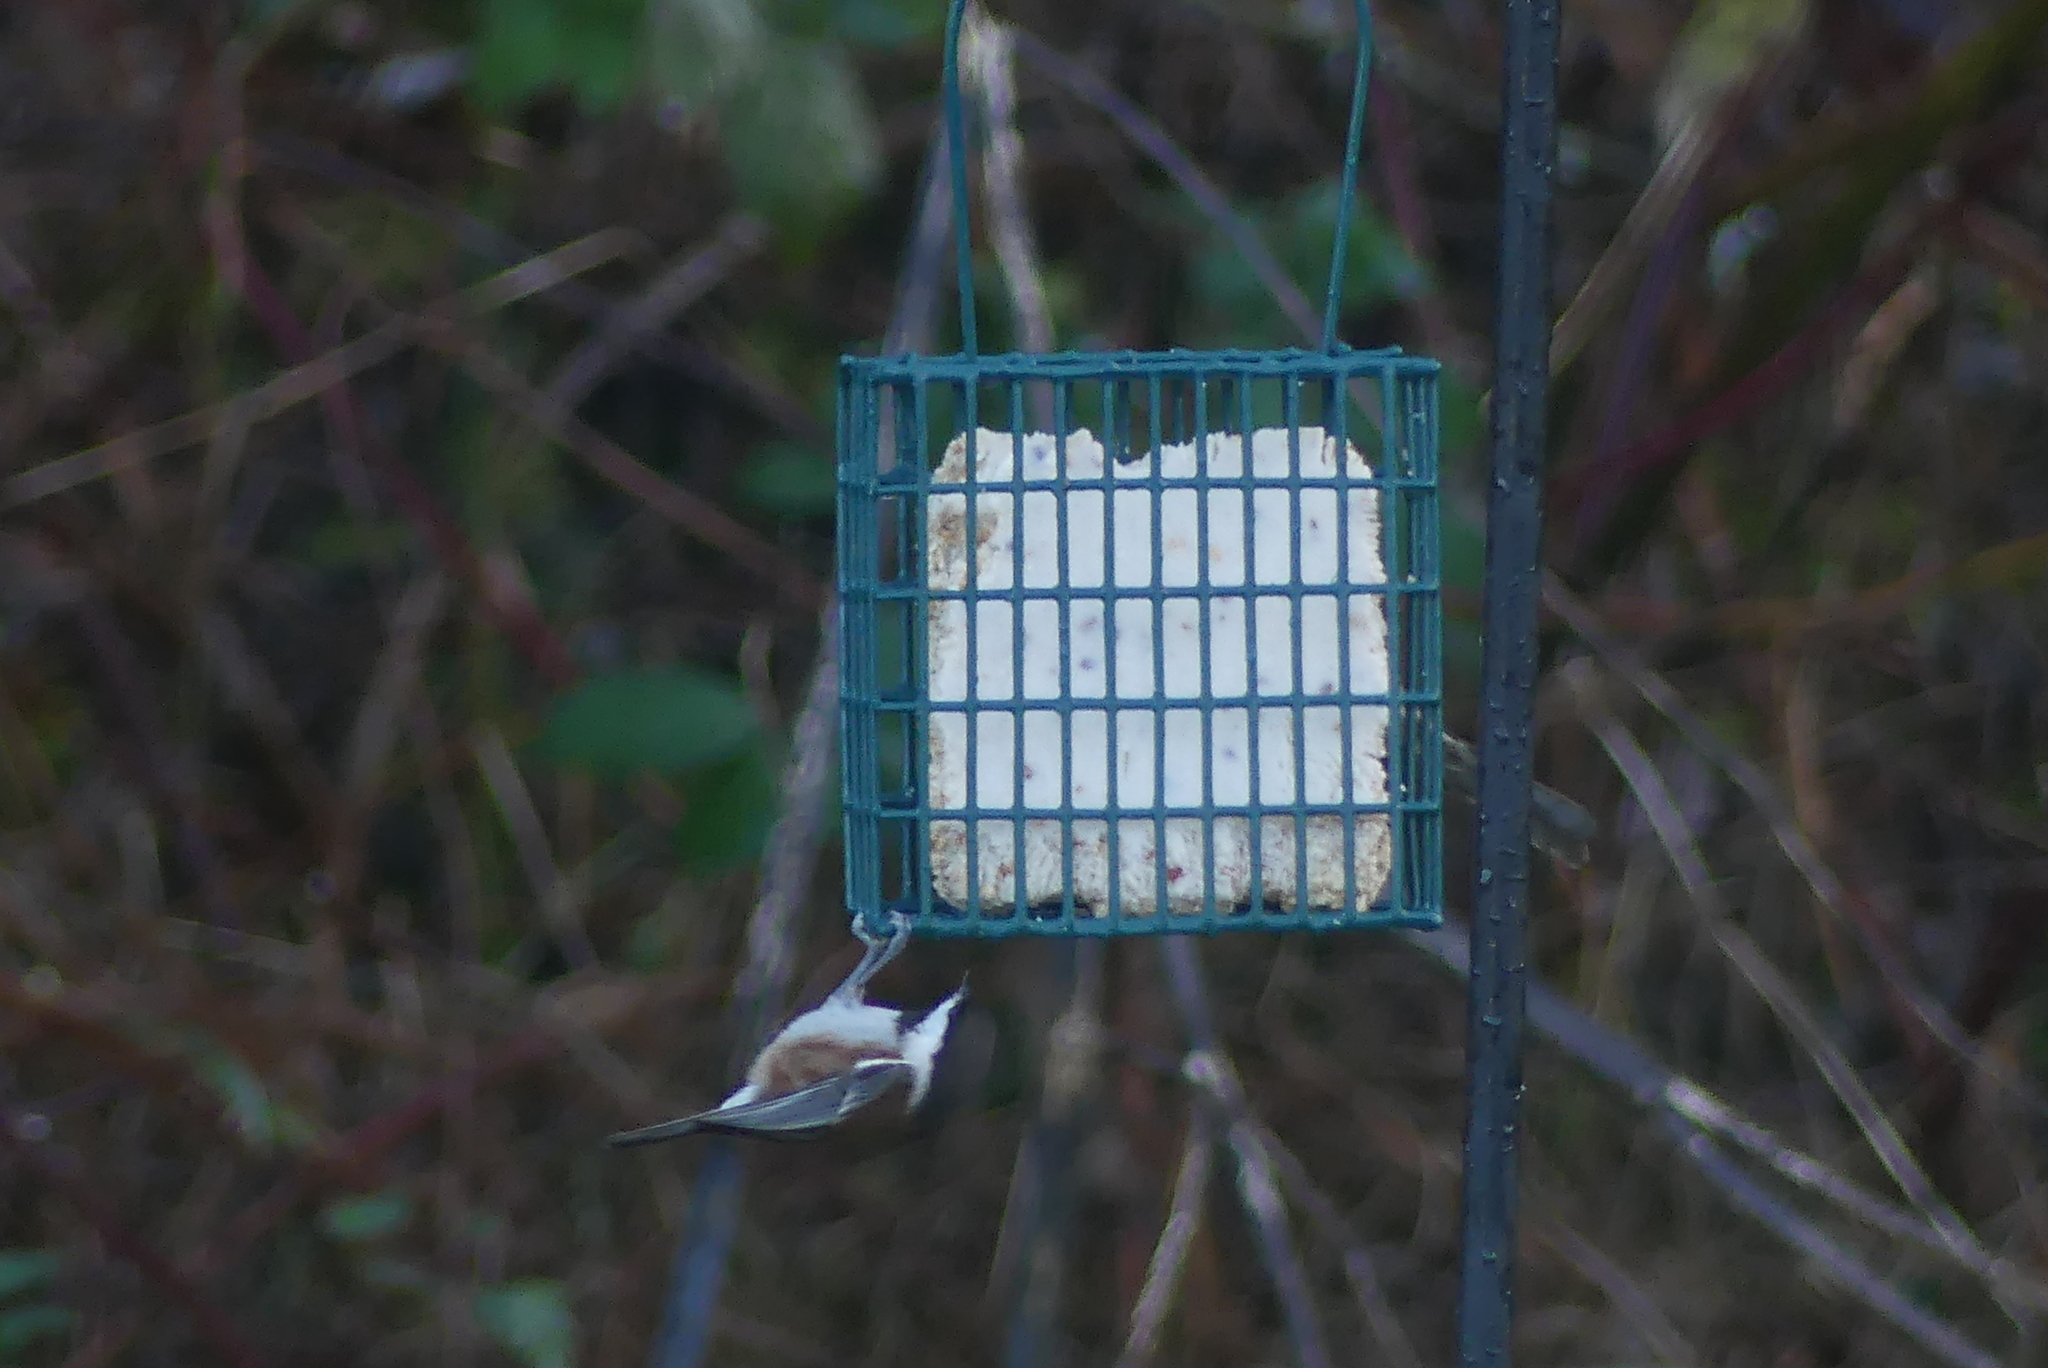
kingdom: Animalia
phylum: Chordata
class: Aves
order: Passeriformes
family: Paridae
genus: Poecile
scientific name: Poecile rufescens
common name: Chestnut-backed chickadee
